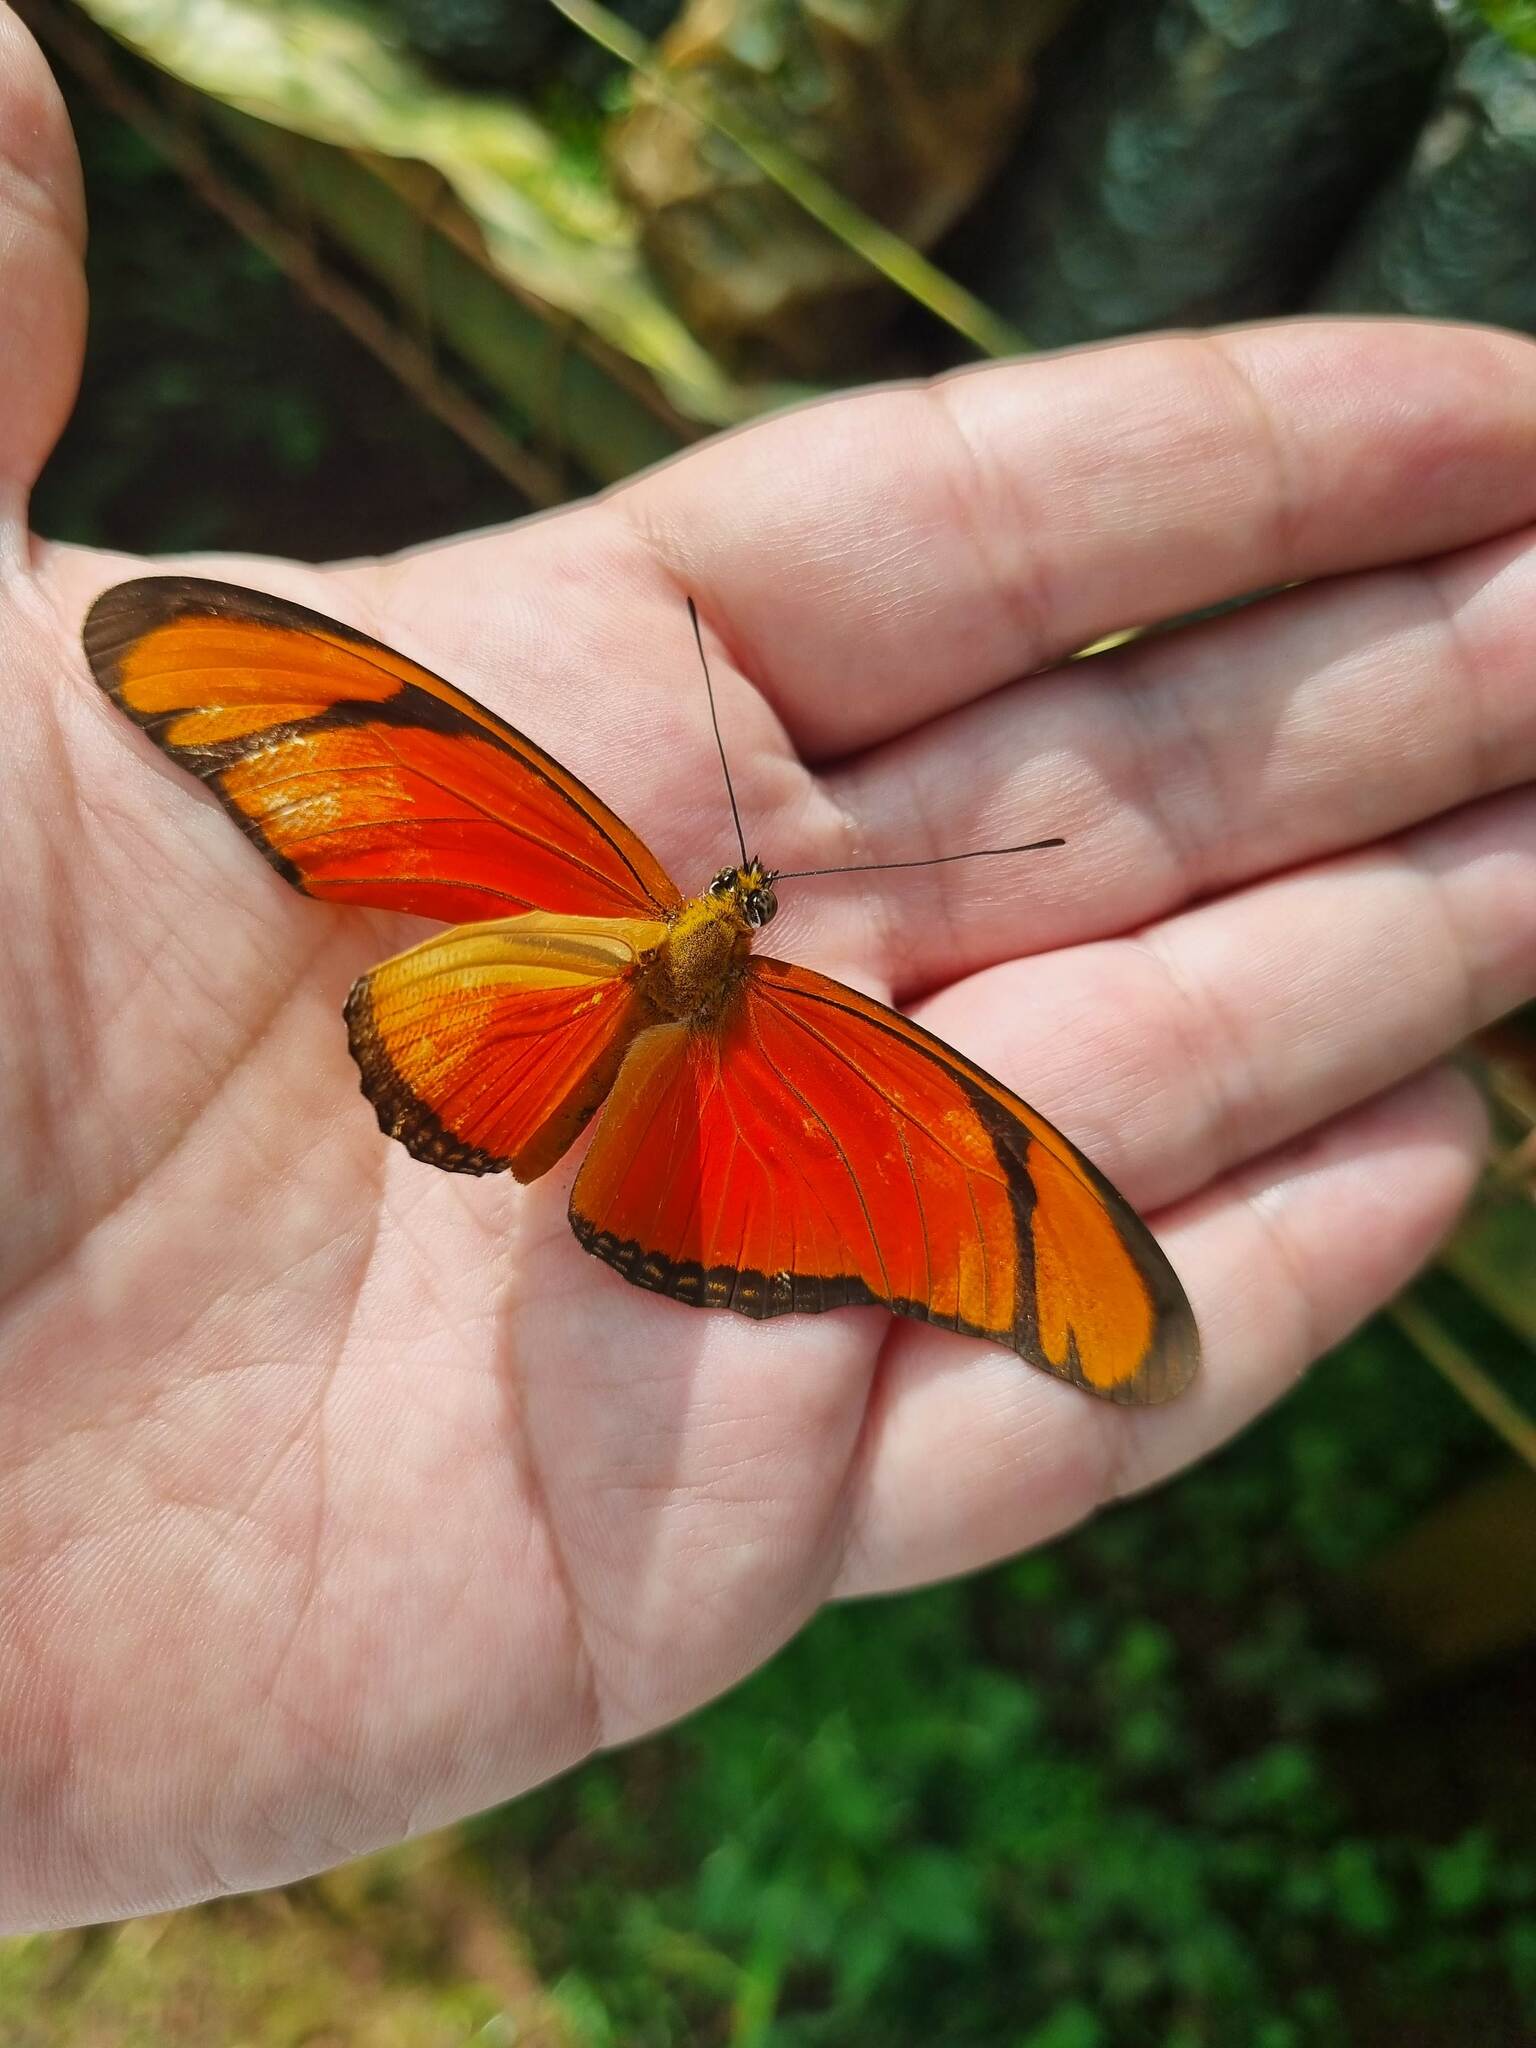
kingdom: Animalia
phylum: Arthropoda
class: Insecta
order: Lepidoptera
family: Nymphalidae
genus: Dryas
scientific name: Dryas iulia
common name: Flambeau
